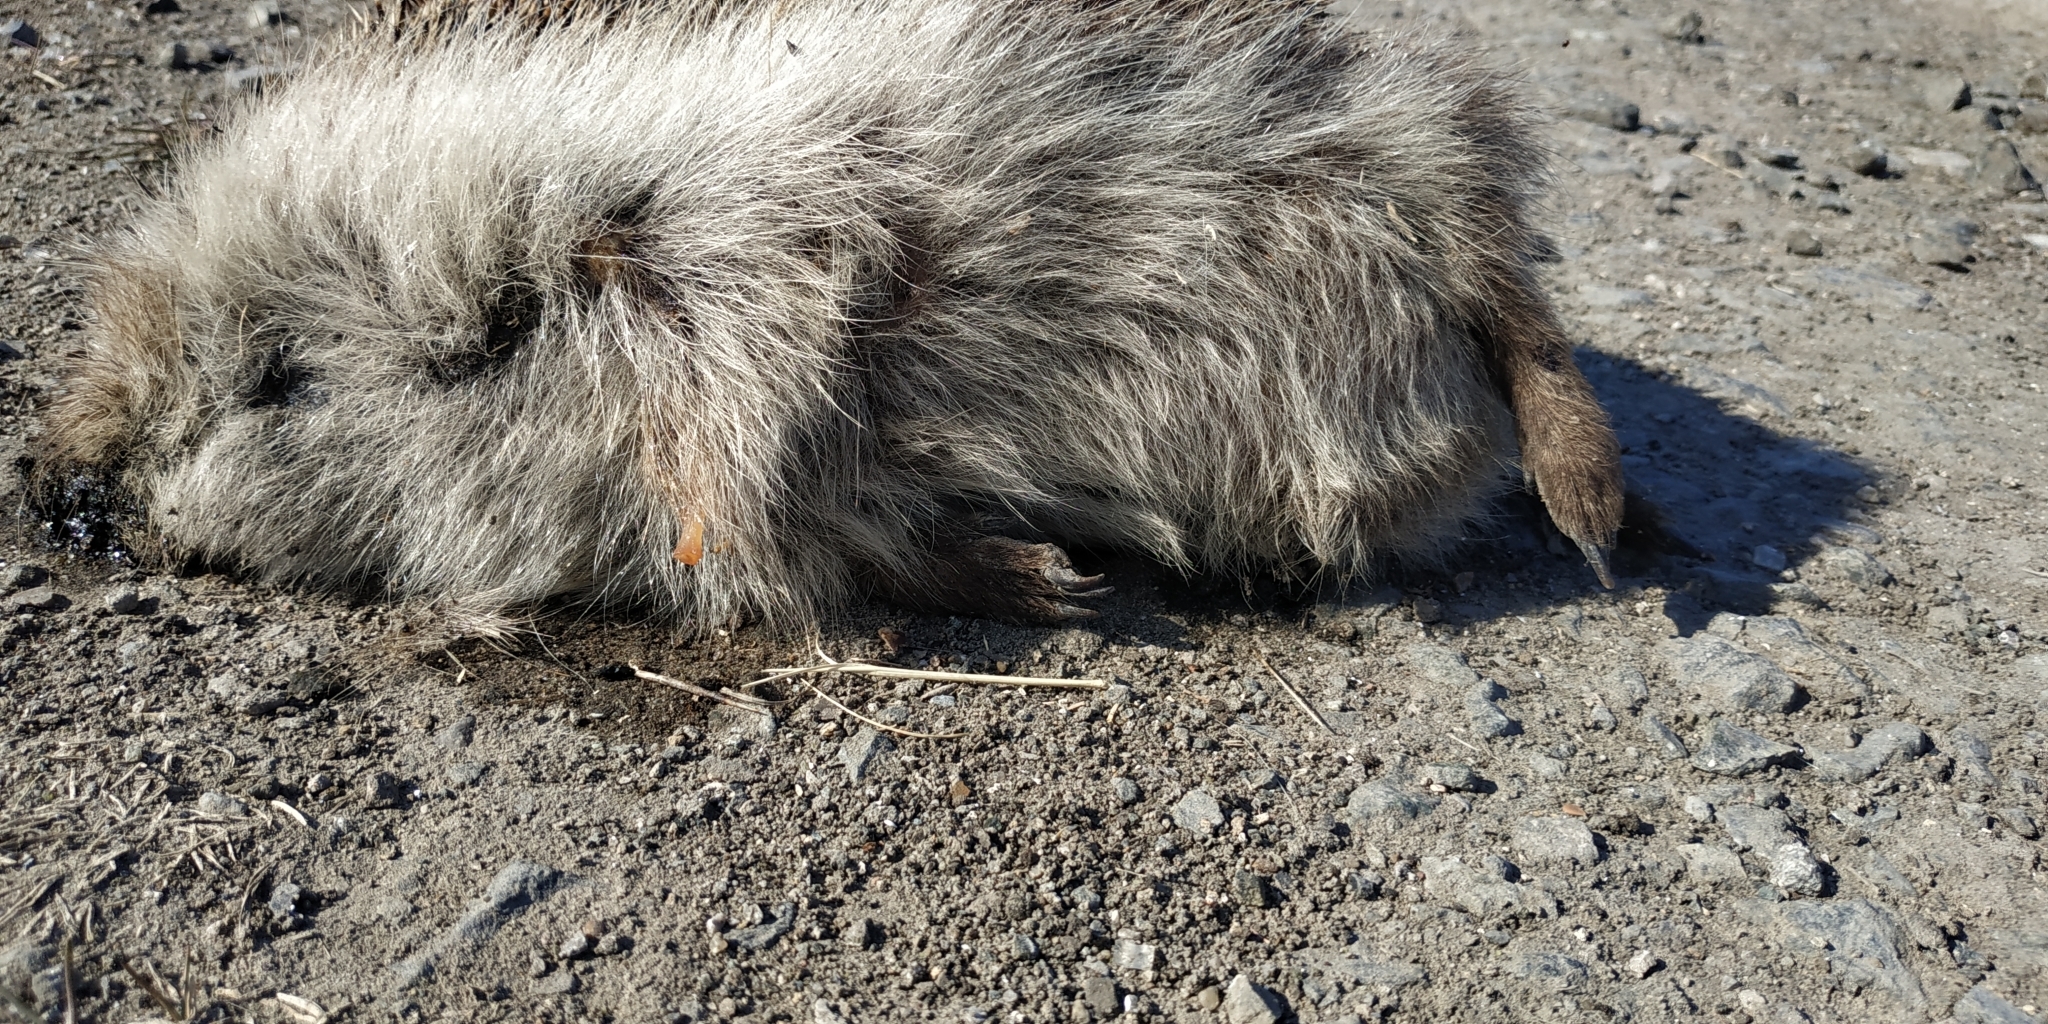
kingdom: Animalia
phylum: Chordata
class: Mammalia
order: Erinaceomorpha
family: Erinaceidae
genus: Erinaceus
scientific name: Erinaceus roumanicus
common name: Northern white-breasted hedgehog
